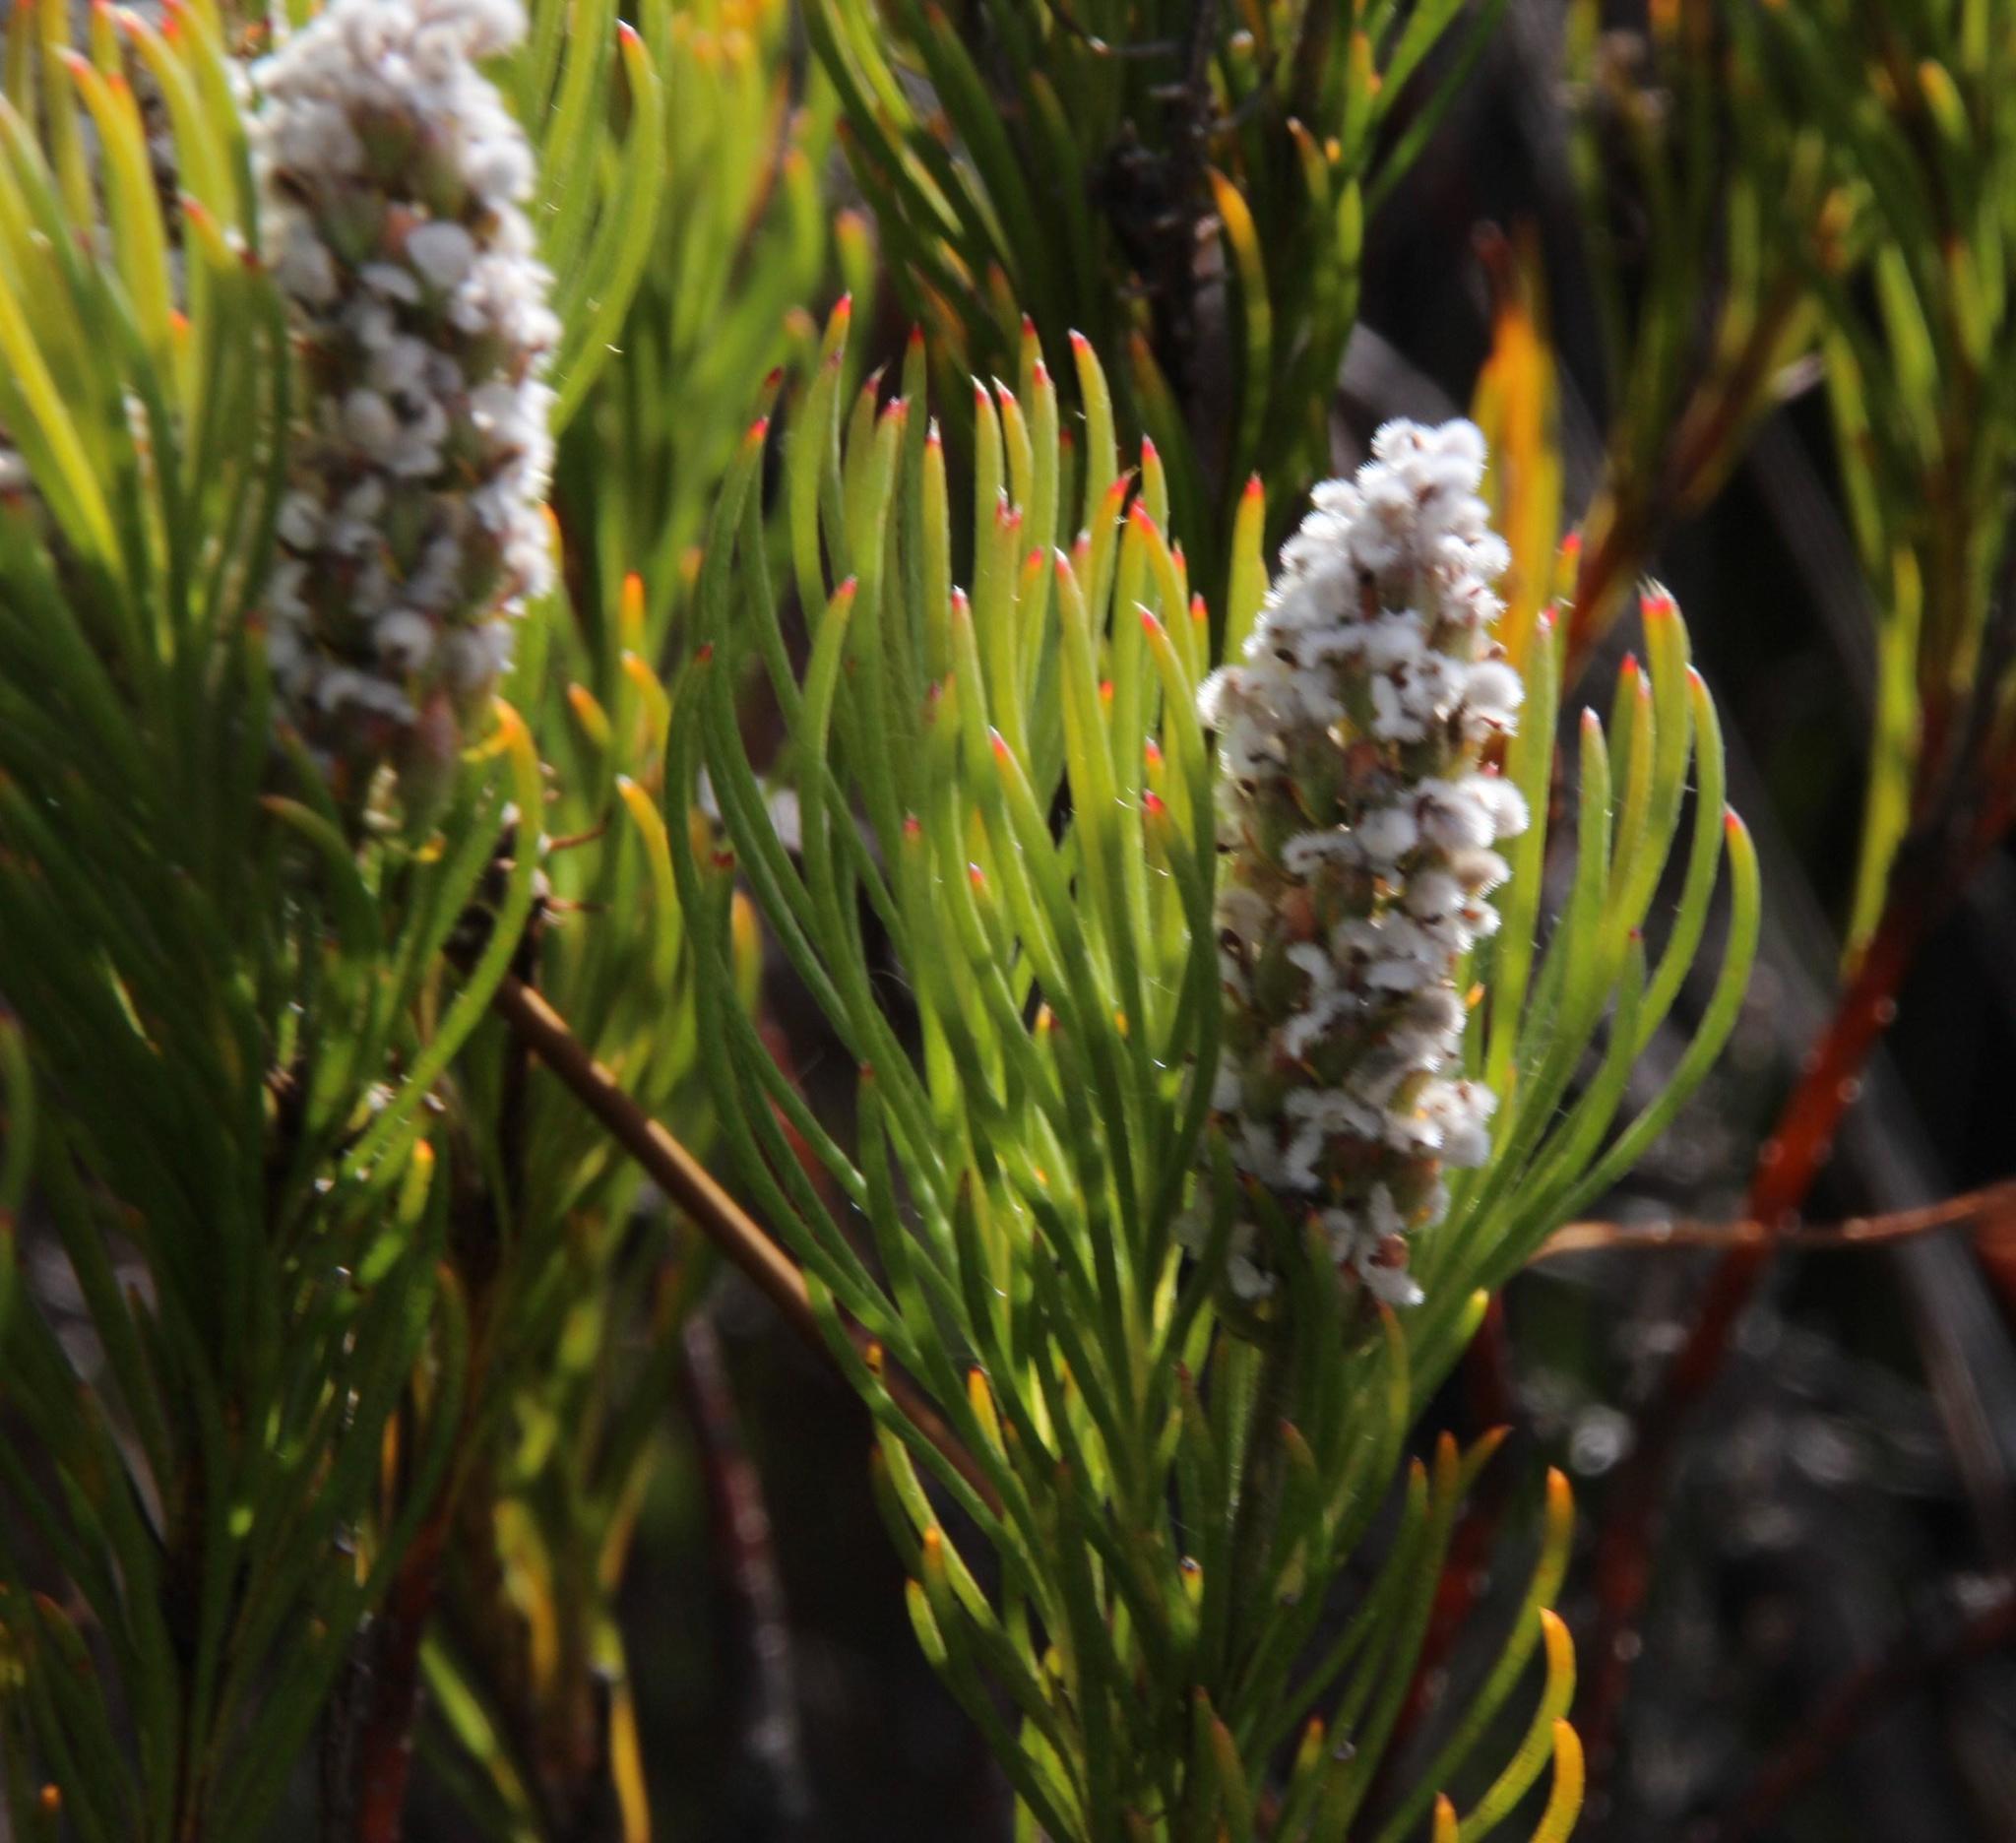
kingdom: Plantae
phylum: Tracheophyta
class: Magnoliopsida
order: Proteales
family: Proteaceae
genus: Spatalla
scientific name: Spatalla curvifolia
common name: White-stalked spoon
